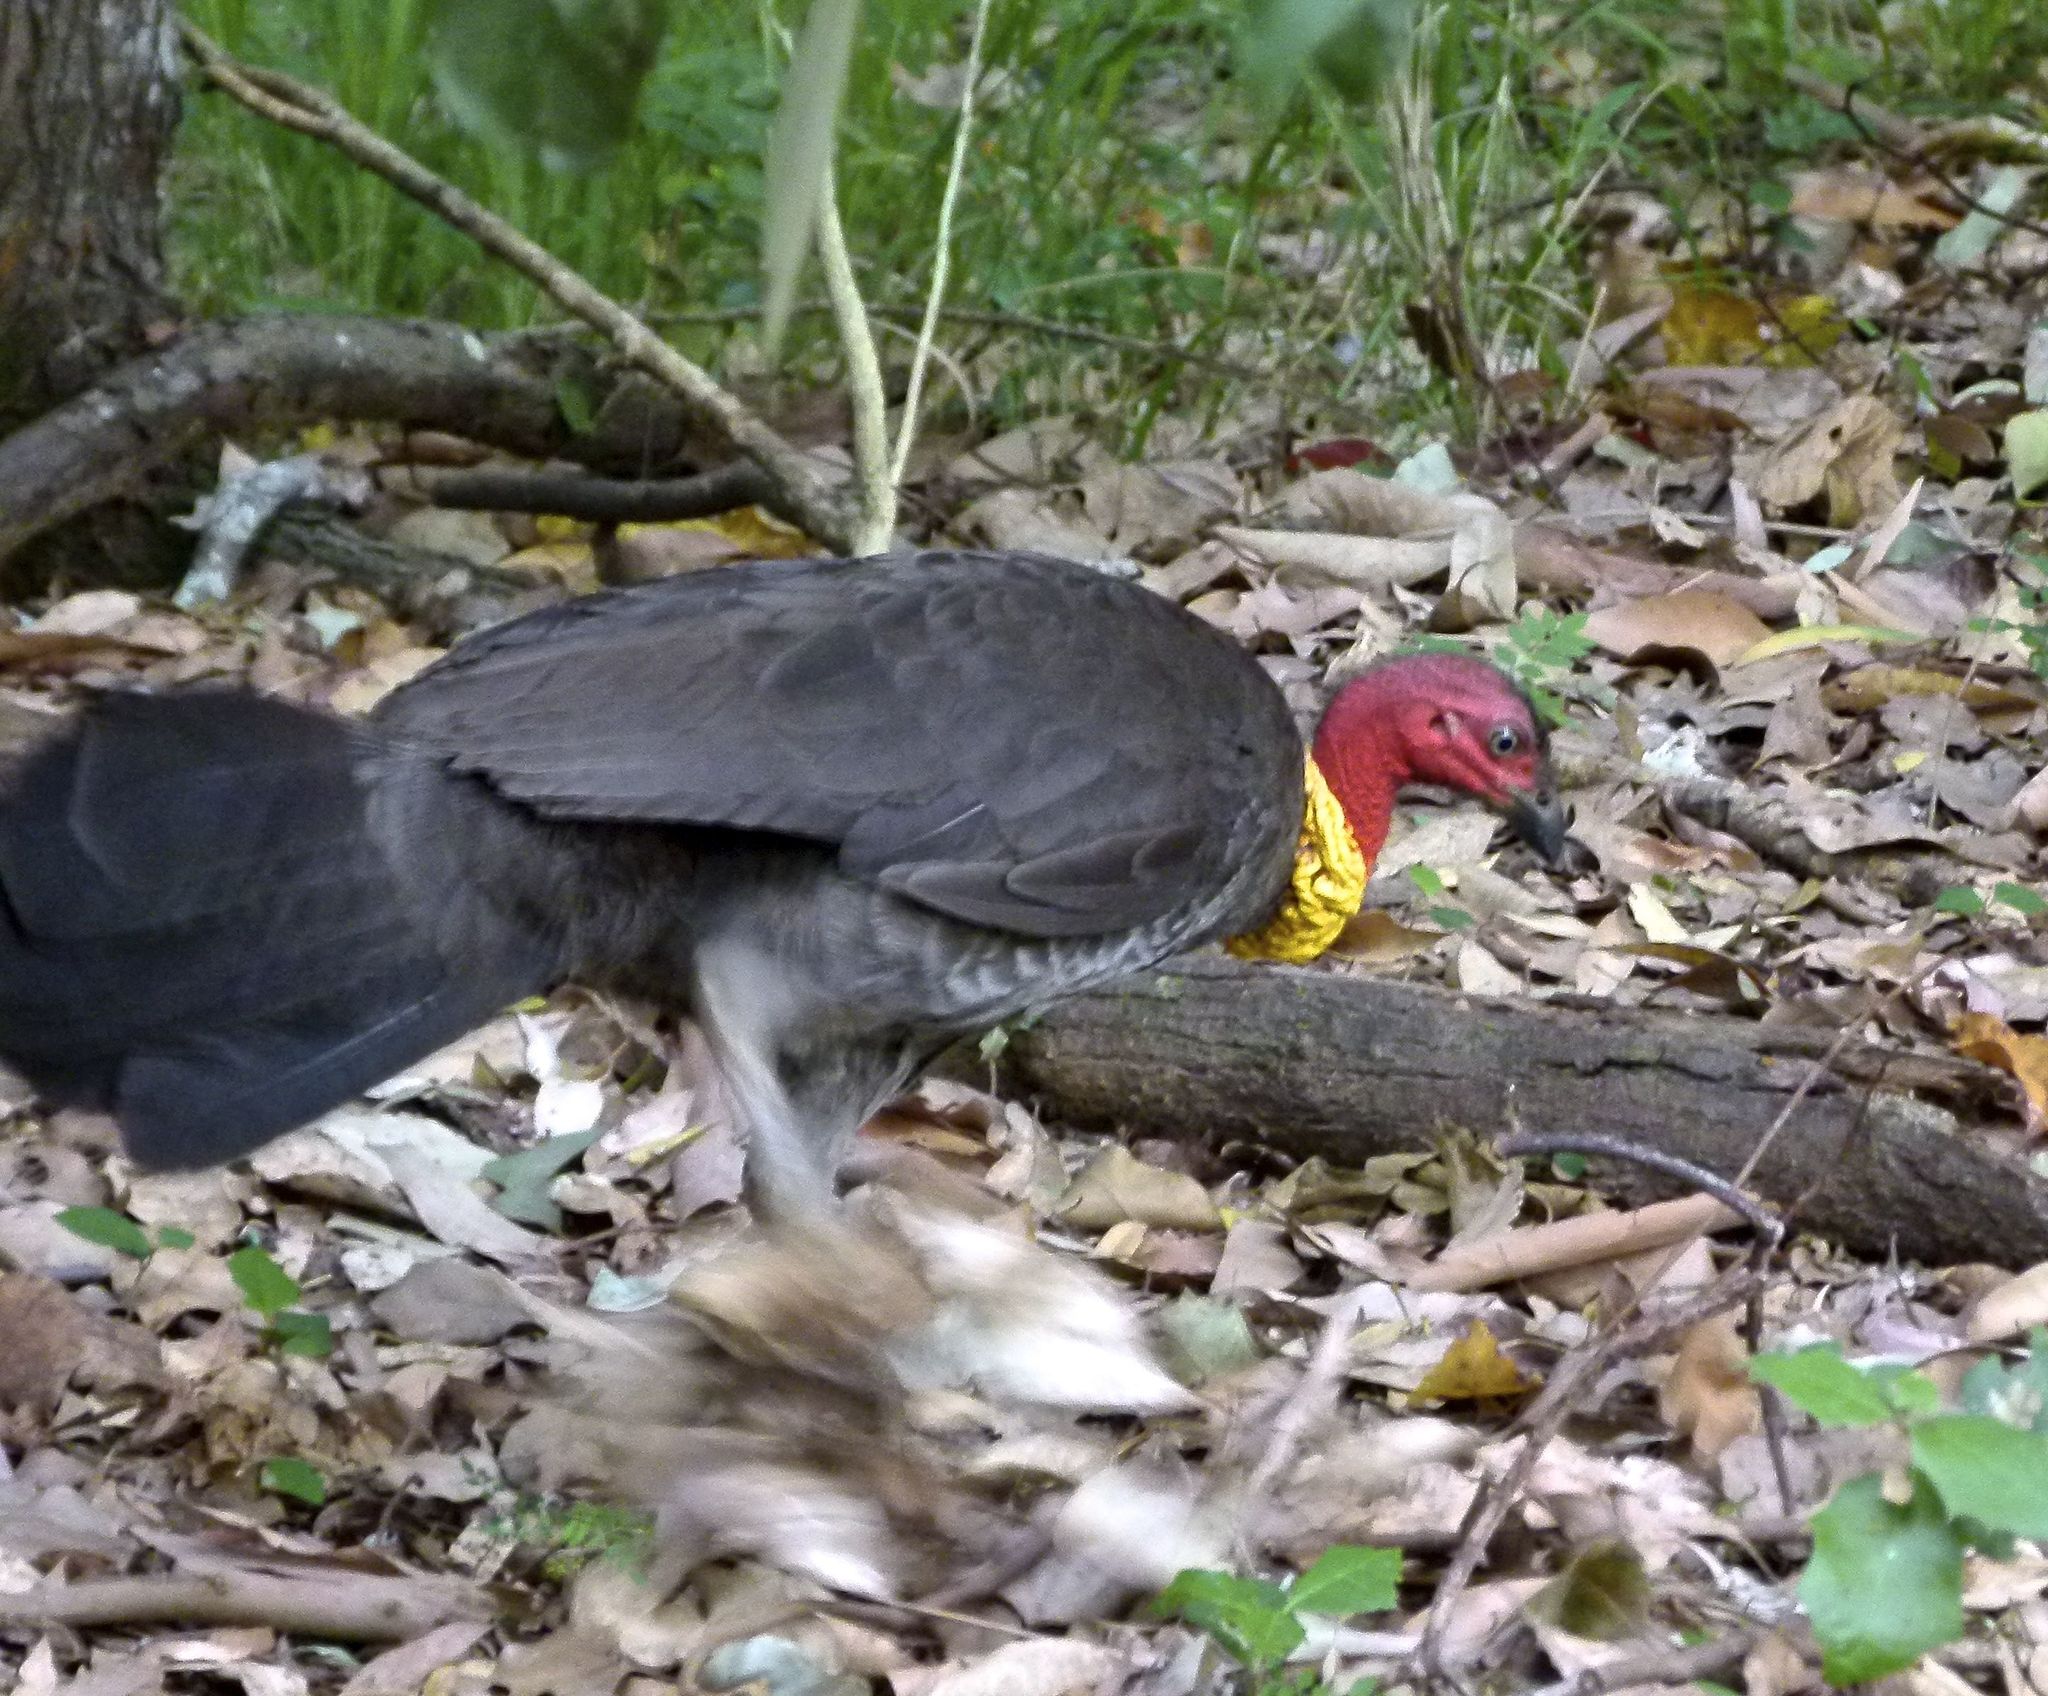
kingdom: Animalia
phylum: Chordata
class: Aves
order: Galliformes
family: Megapodiidae
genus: Alectura
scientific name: Alectura lathami
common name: Australian brushturkey
